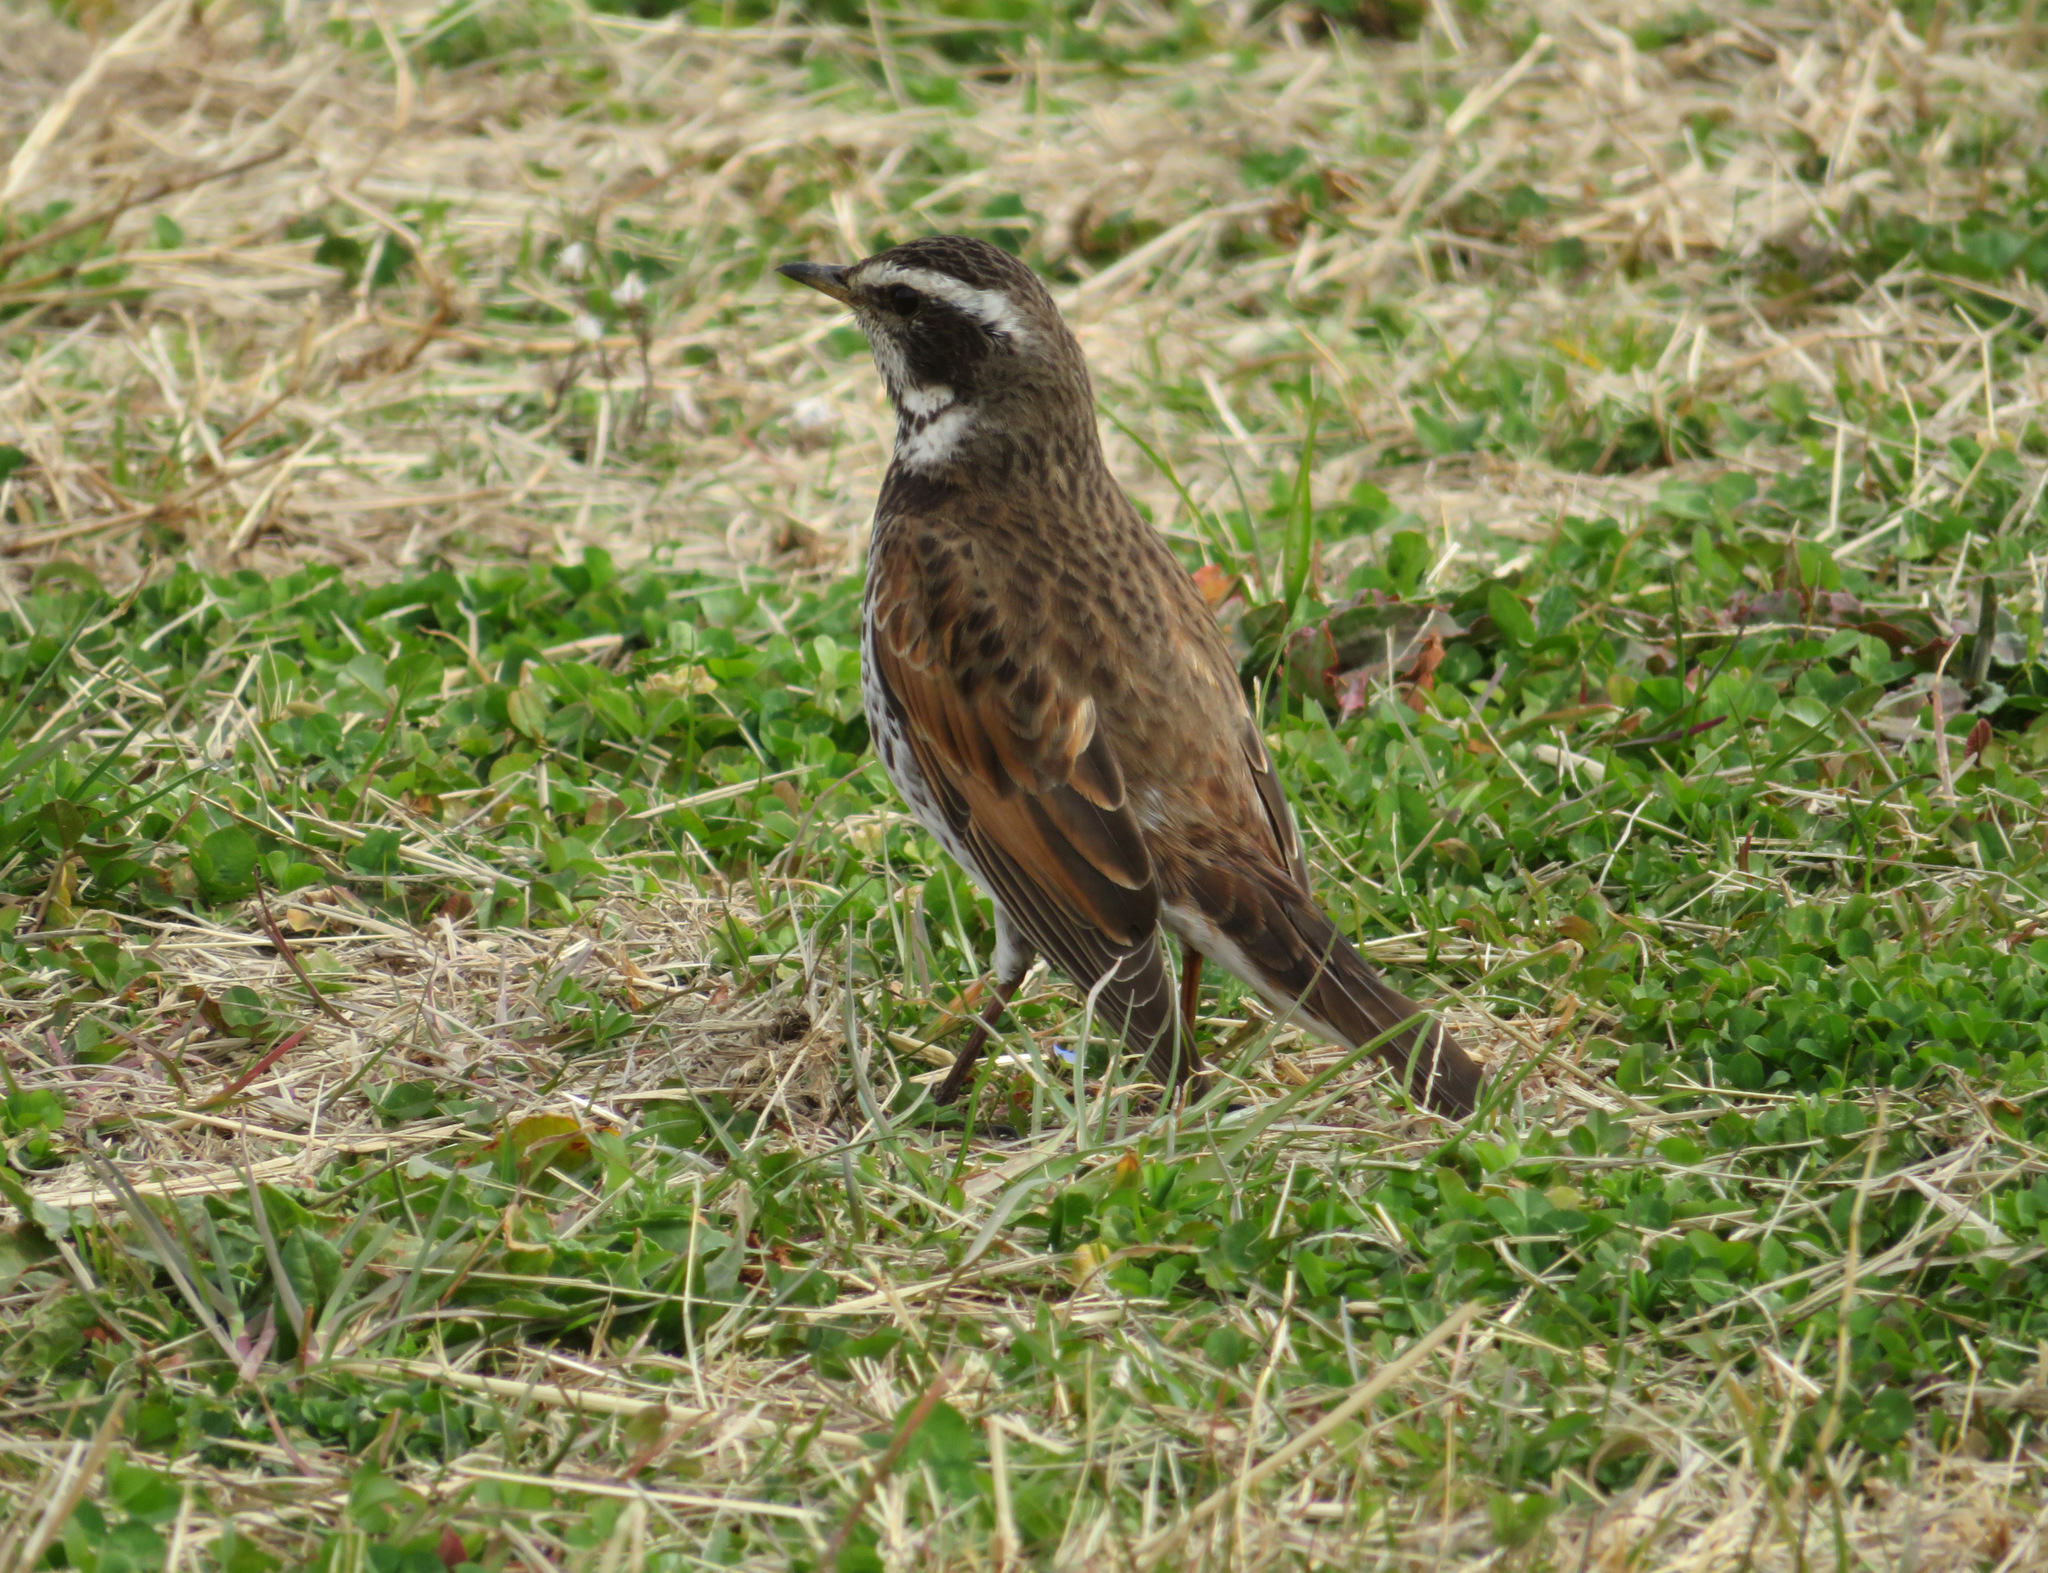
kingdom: Animalia
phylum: Chordata
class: Aves
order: Passeriformes
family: Turdidae
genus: Turdus
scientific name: Turdus eunomus
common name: Dusky thrush
